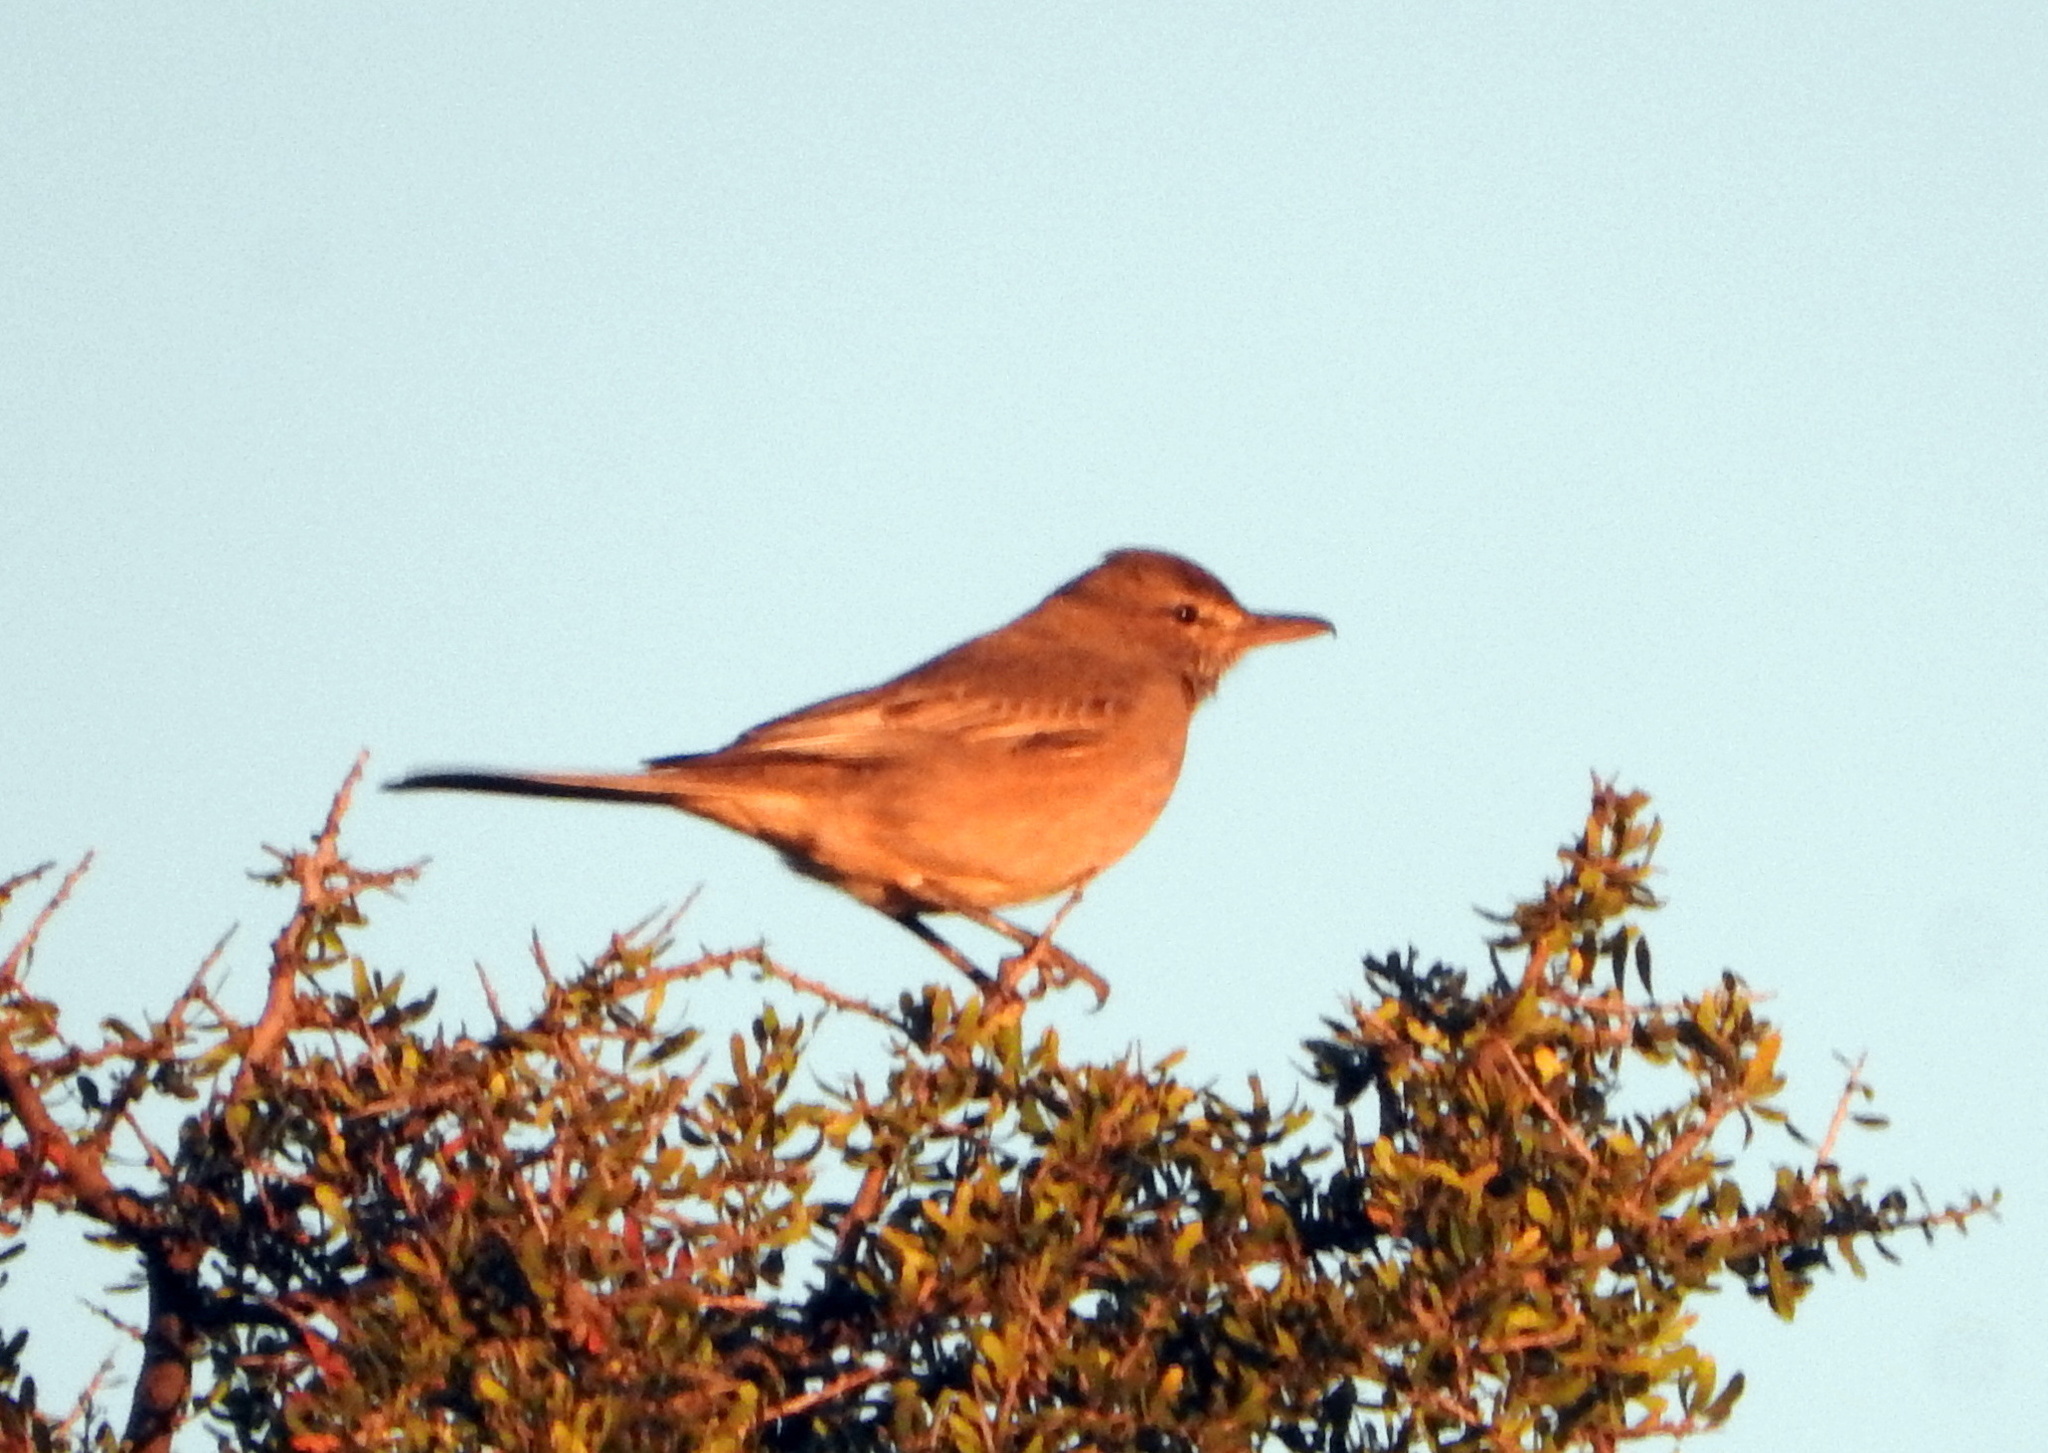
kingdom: Animalia
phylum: Chordata
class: Aves
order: Passeriformes
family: Tyrannidae
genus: Agriornis
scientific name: Agriornis micropterus
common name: Grey-bellied shrike-tyrant
